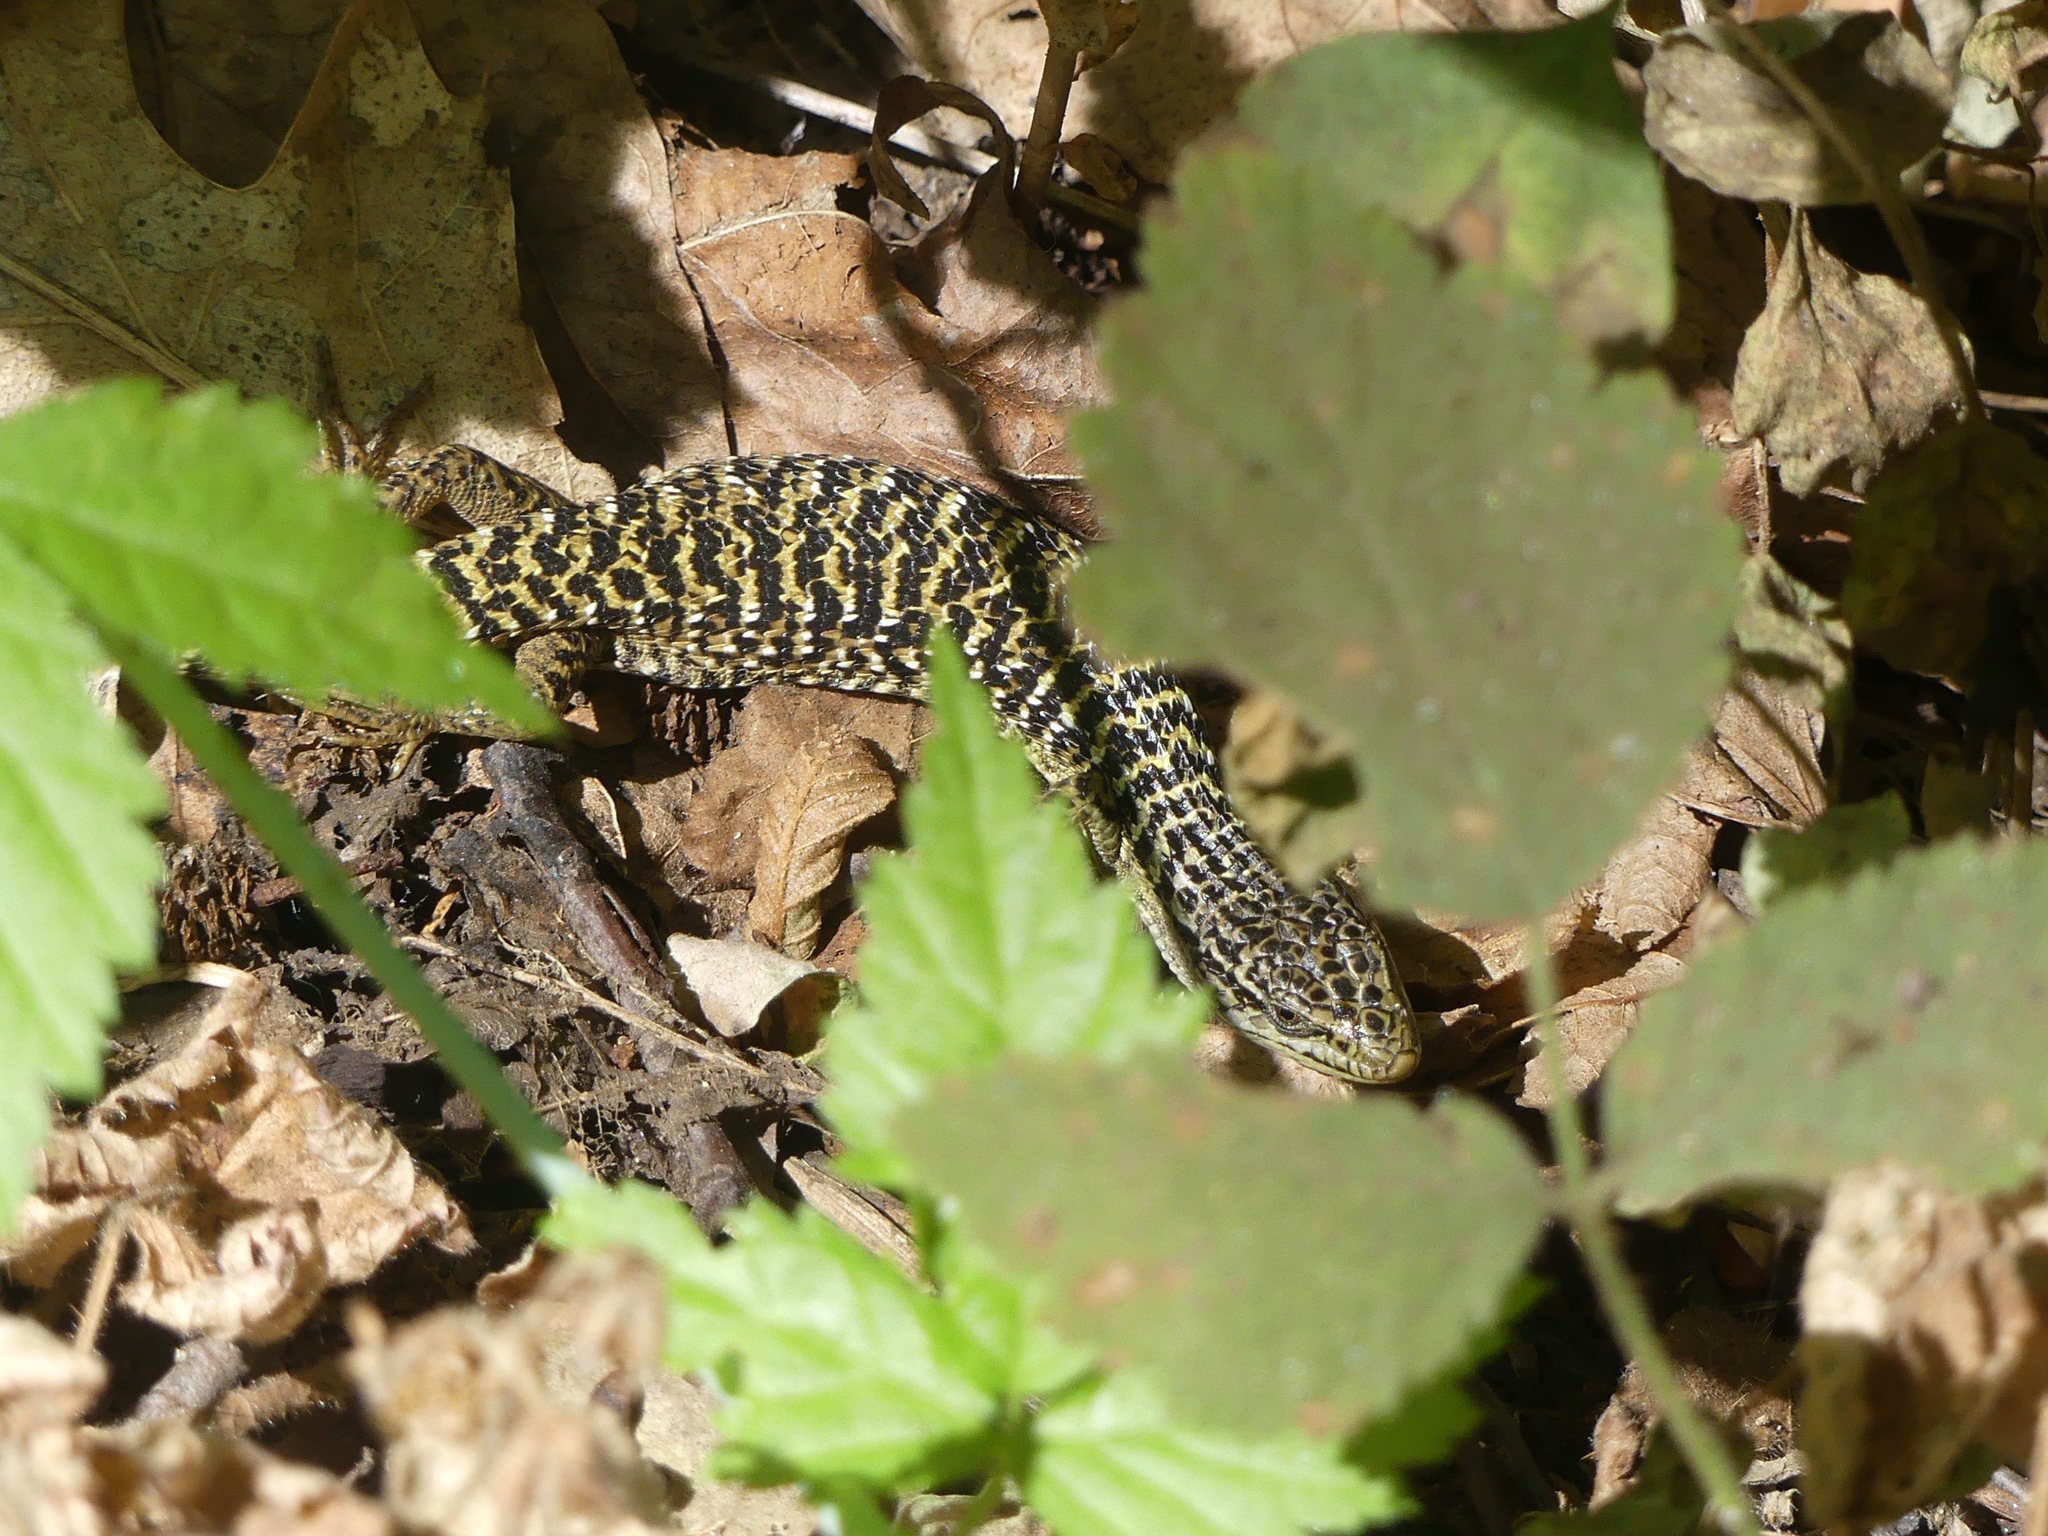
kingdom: Animalia
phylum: Chordata
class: Squamata
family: Anguidae
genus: Elgaria
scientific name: Elgaria coerulea
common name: Northern alligator lizard
